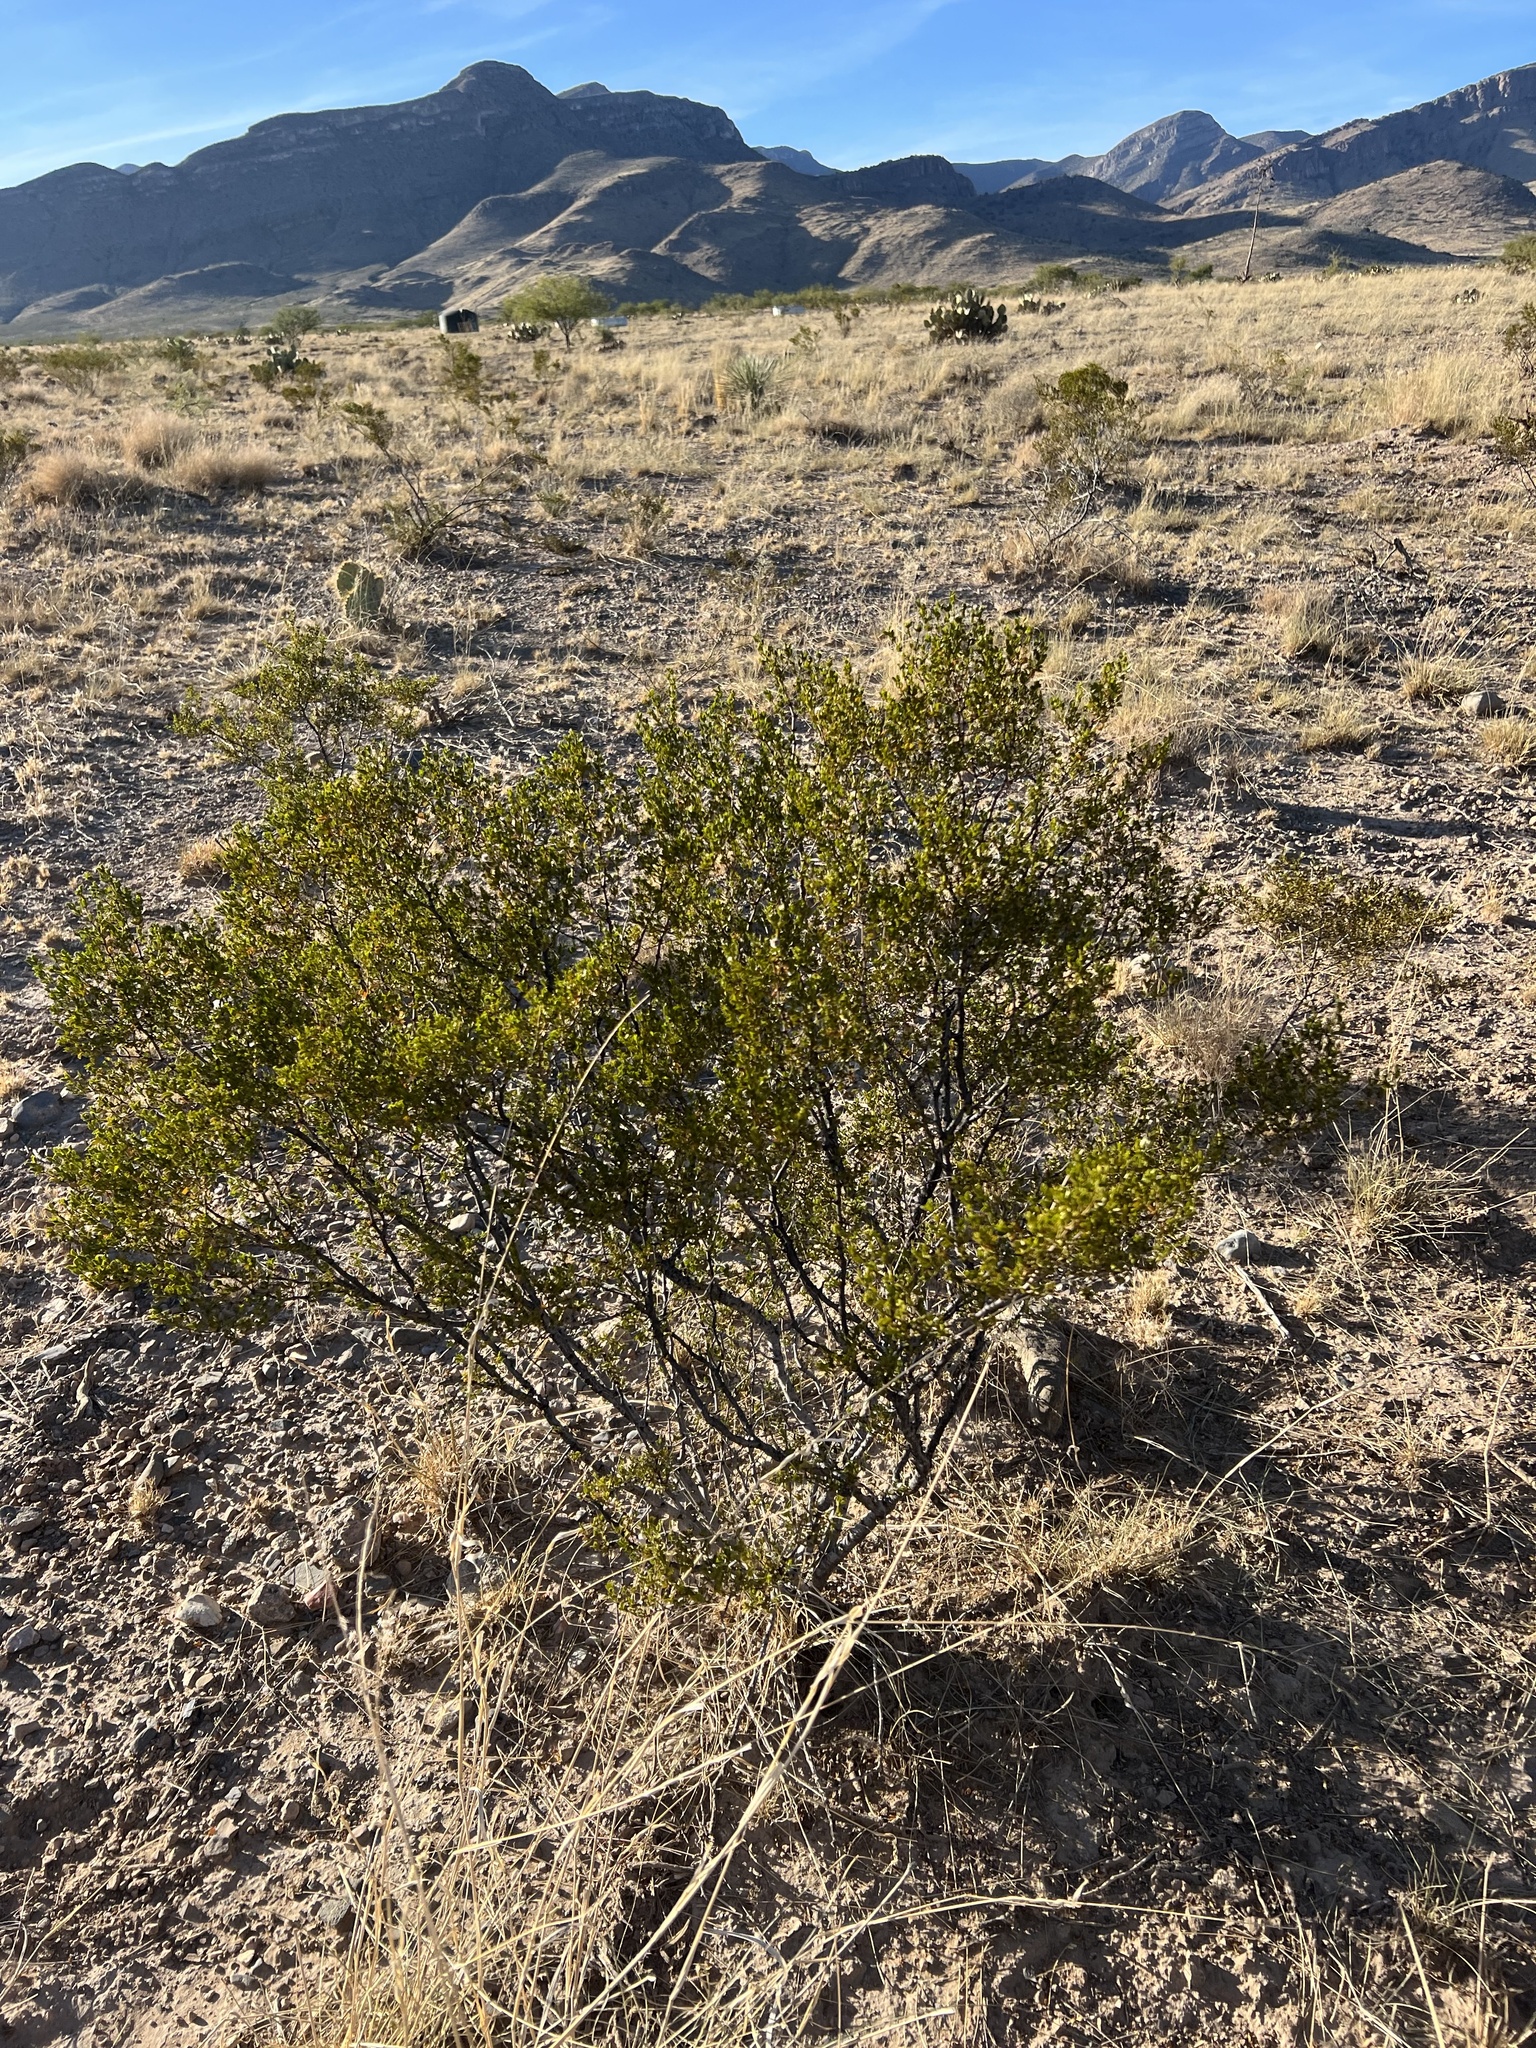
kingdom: Plantae
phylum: Tracheophyta
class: Magnoliopsida
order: Zygophyllales
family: Zygophyllaceae
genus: Larrea
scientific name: Larrea tridentata
